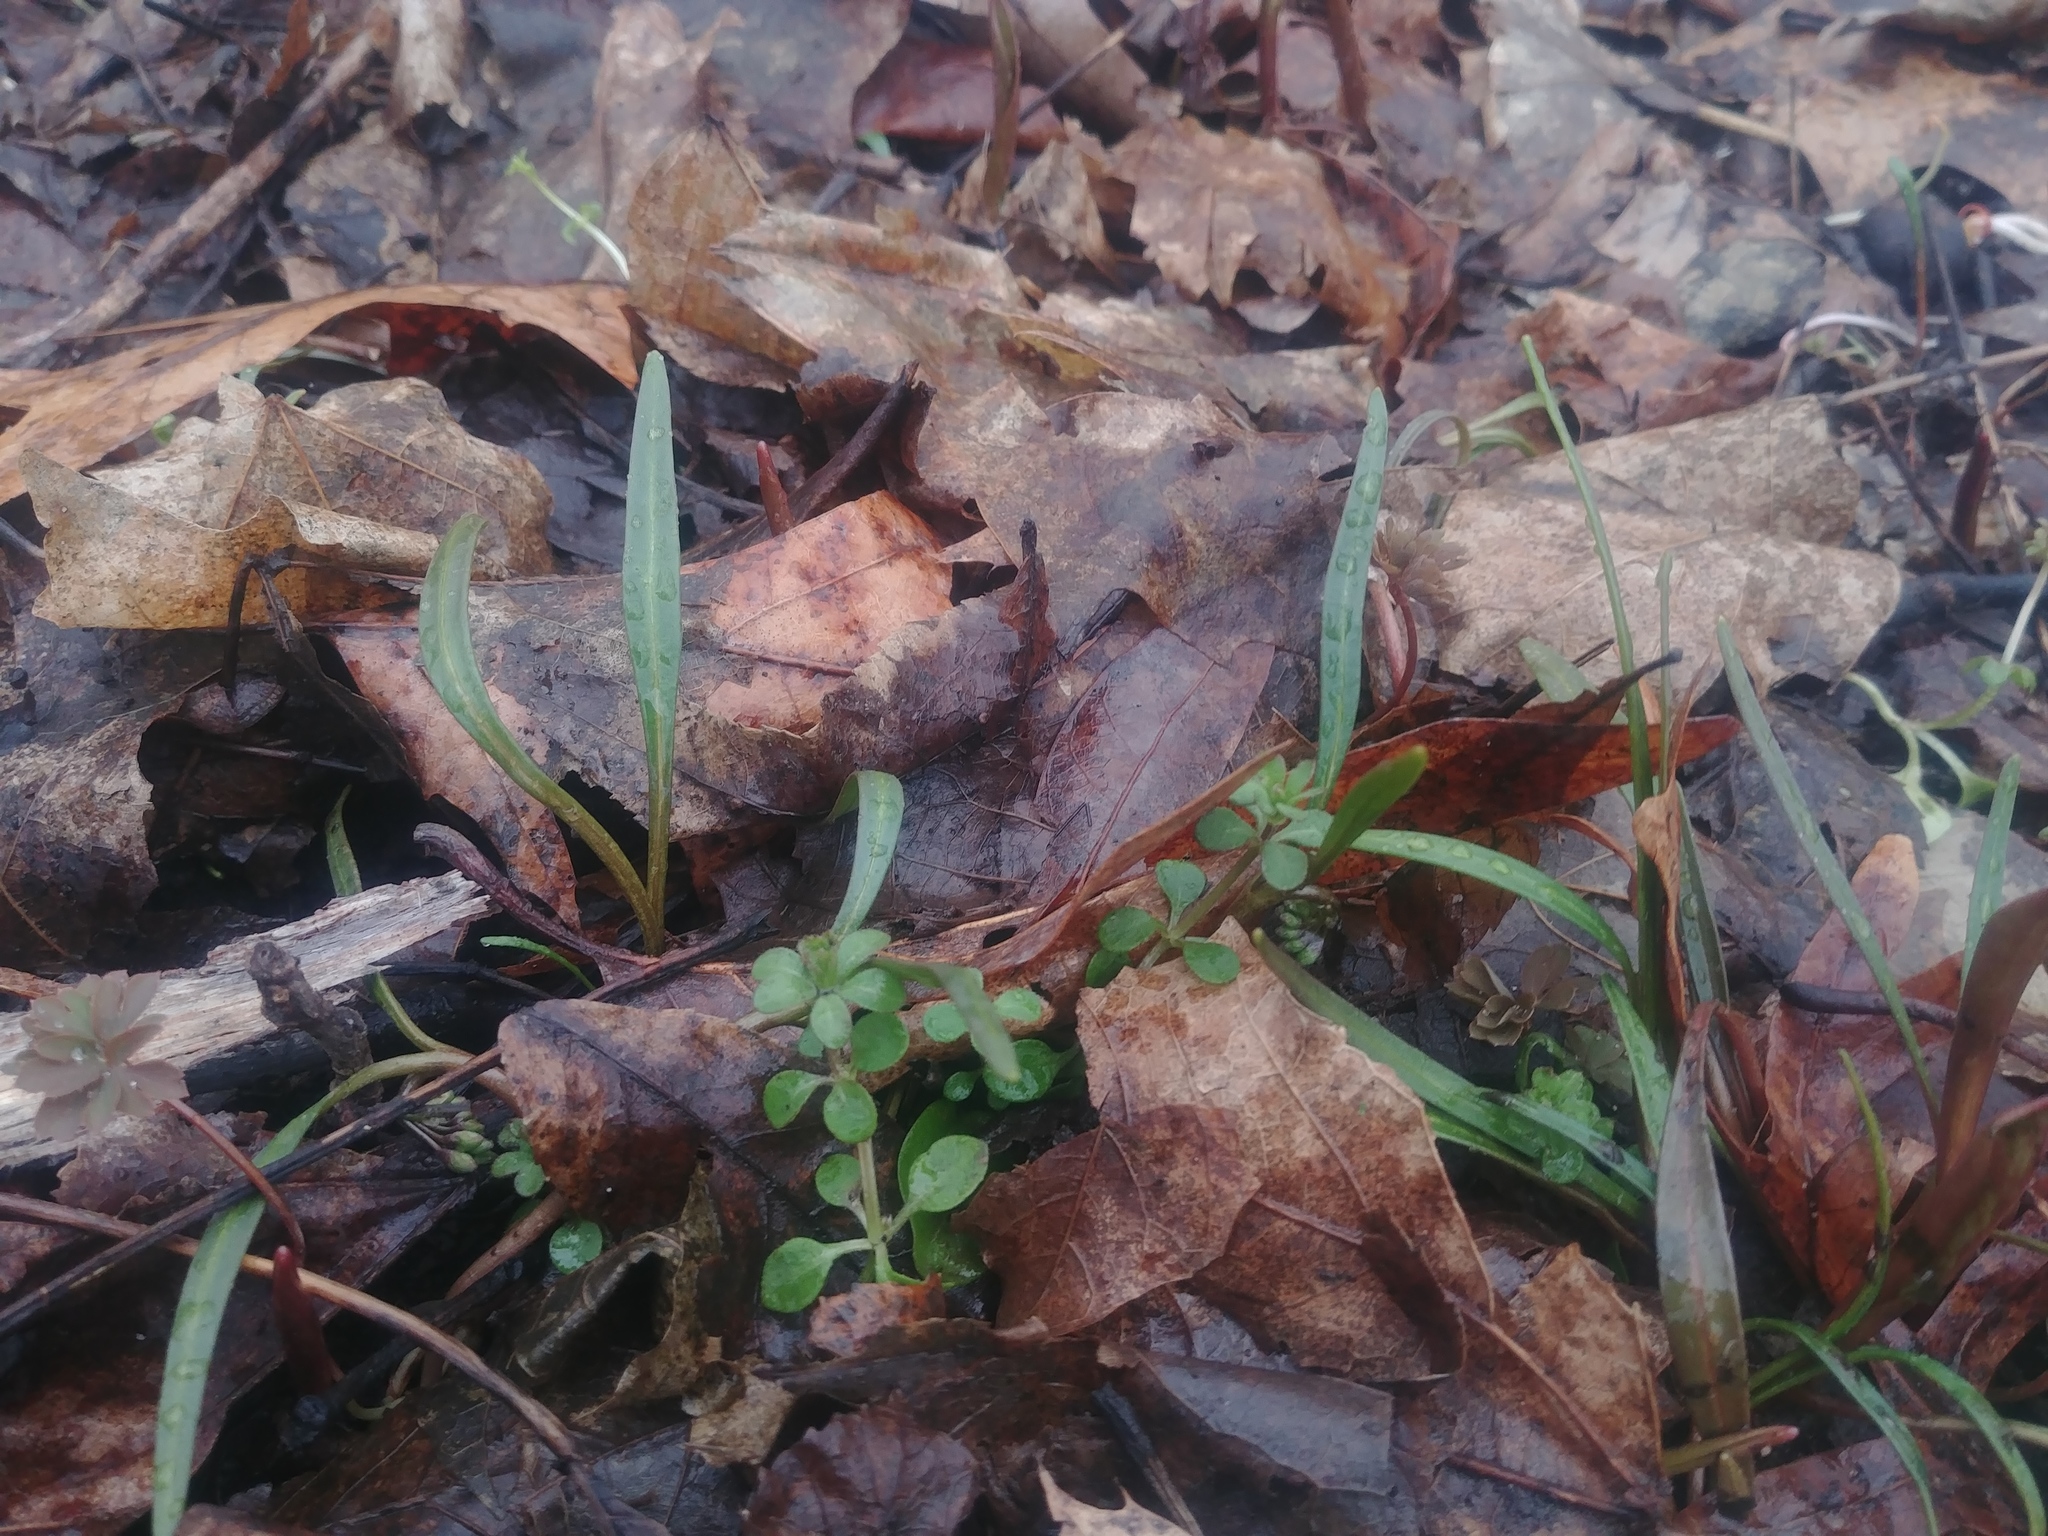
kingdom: Plantae
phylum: Tracheophyta
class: Magnoliopsida
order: Caryophyllales
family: Montiaceae
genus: Claytonia
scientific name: Claytonia virginica
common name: Virginia springbeauty
